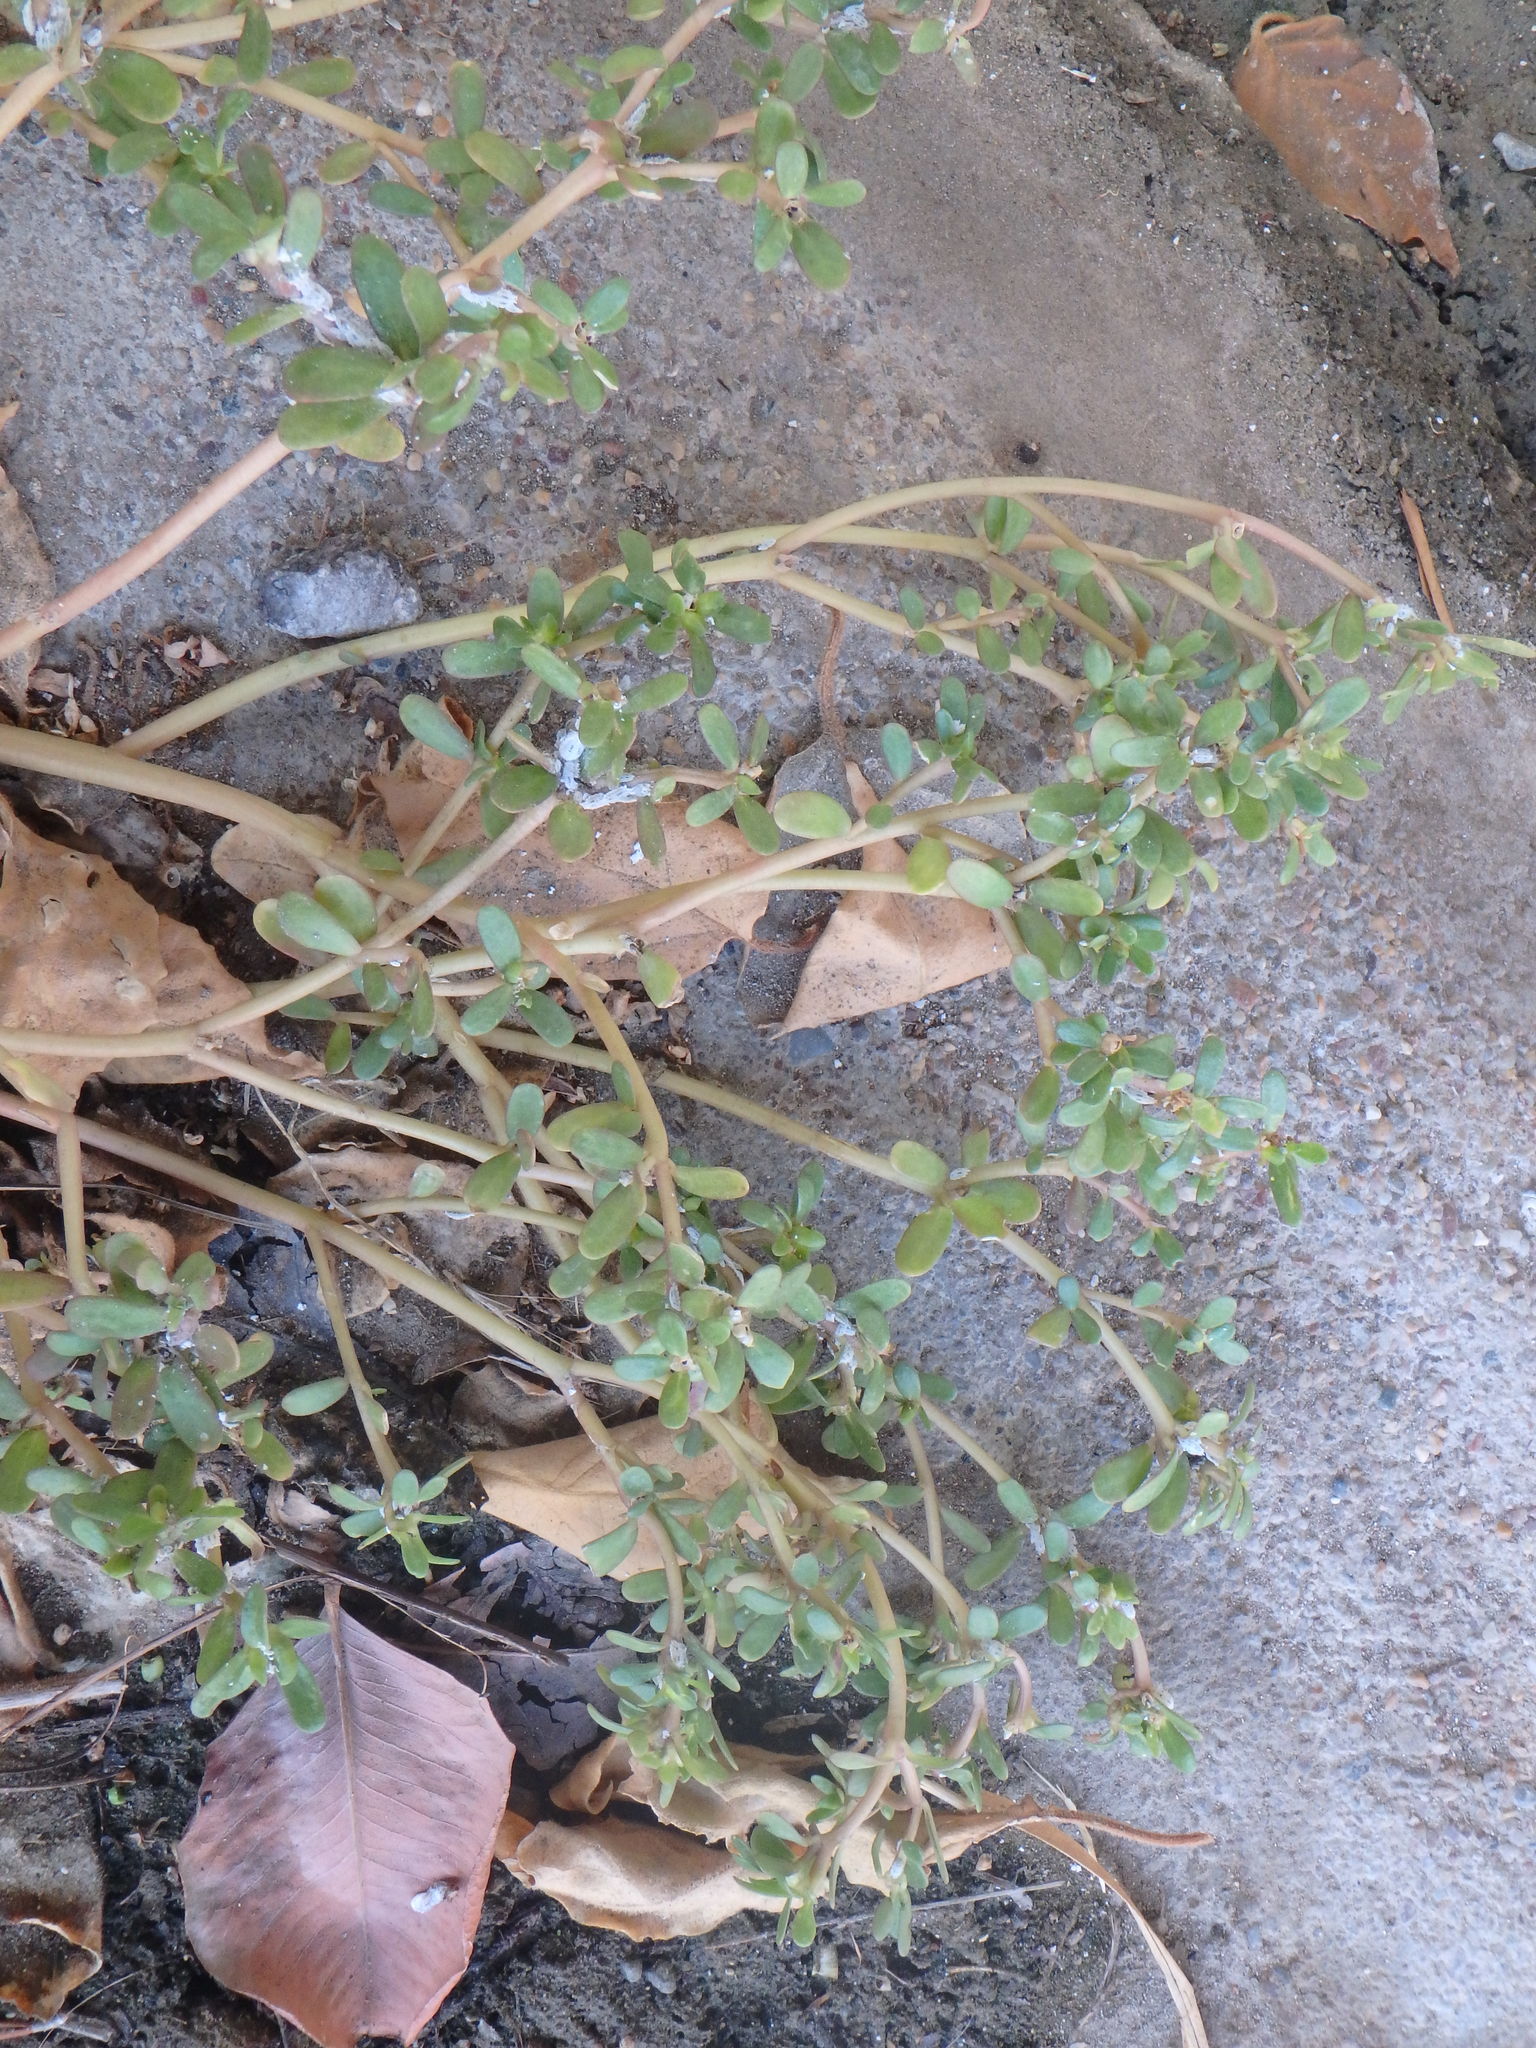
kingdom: Plantae
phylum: Tracheophyta
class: Magnoliopsida
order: Caryophyllales
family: Portulacaceae
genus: Portulaca
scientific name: Portulaca oleracea
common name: Common purslane
